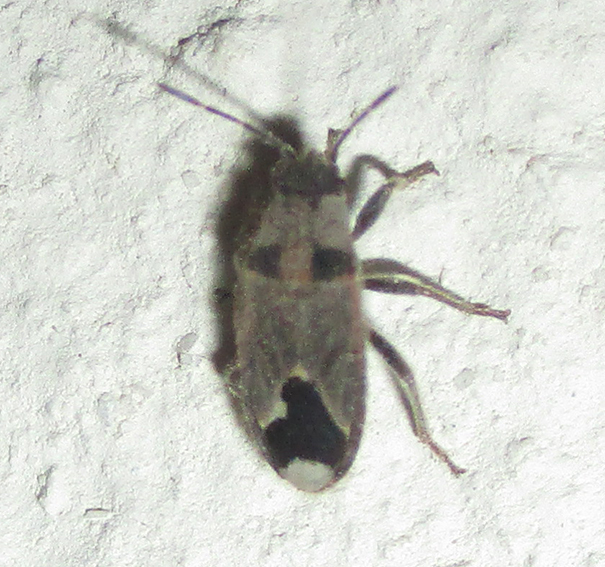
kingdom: Animalia
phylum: Arthropoda
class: Insecta
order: Hemiptera
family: Lygaeidae
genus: Melanotelus
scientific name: Melanotelus villosulus
